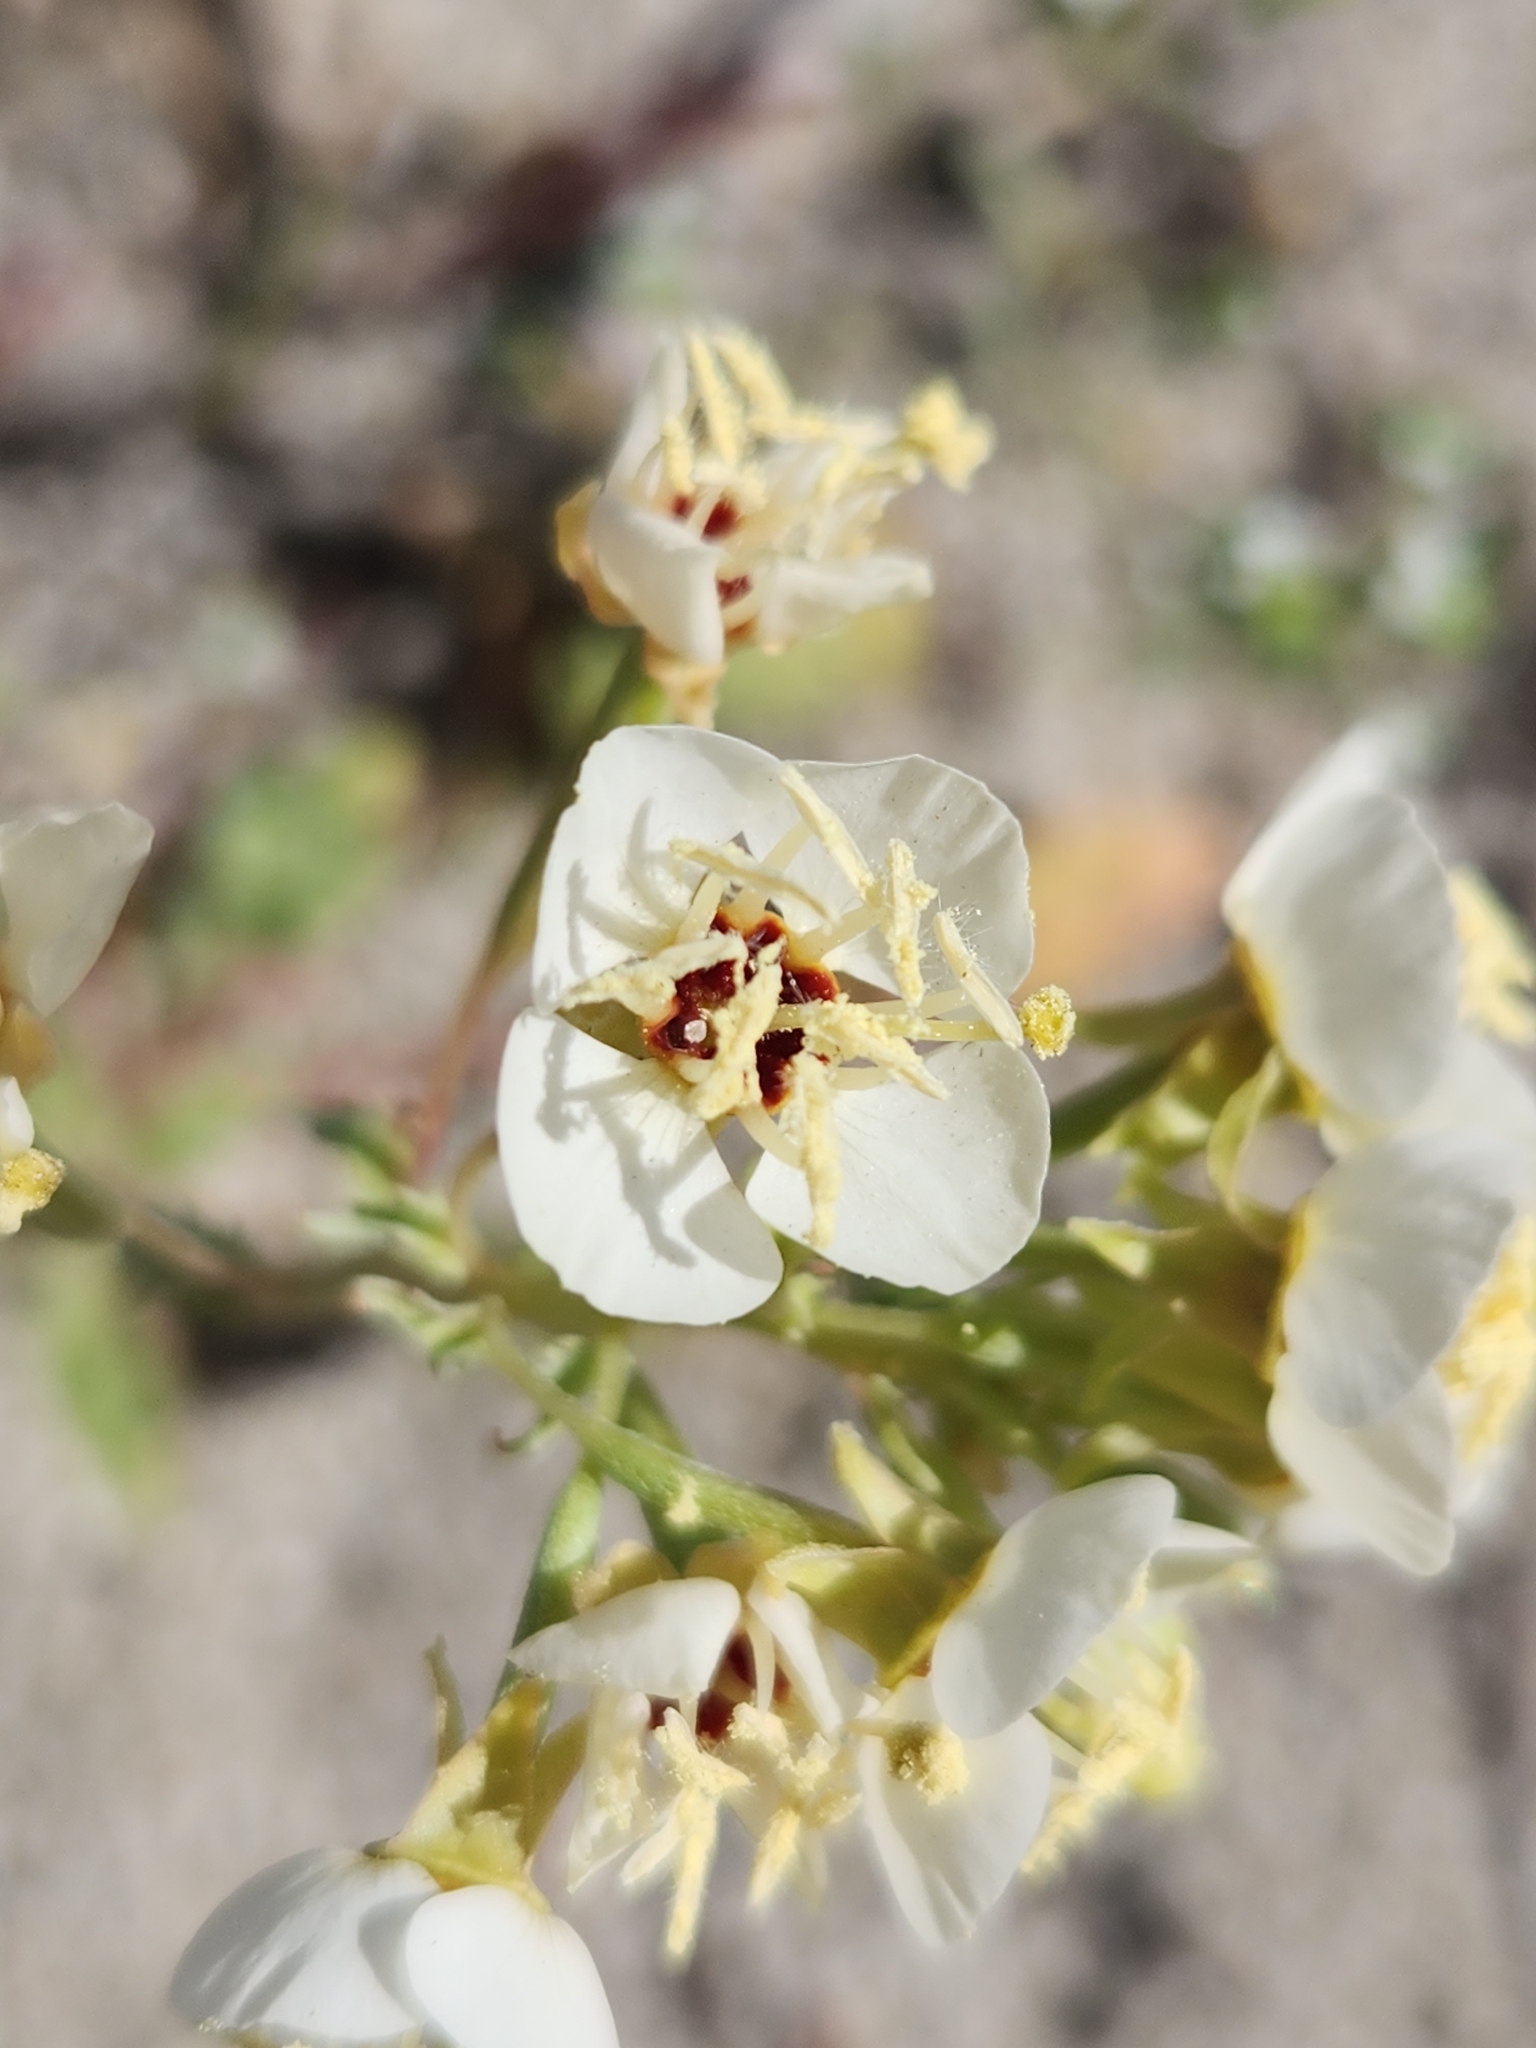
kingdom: Plantae
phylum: Tracheophyta
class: Magnoliopsida
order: Myrtales
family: Onagraceae
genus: Chylismia
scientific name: Chylismia claviformis
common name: Browneyes
